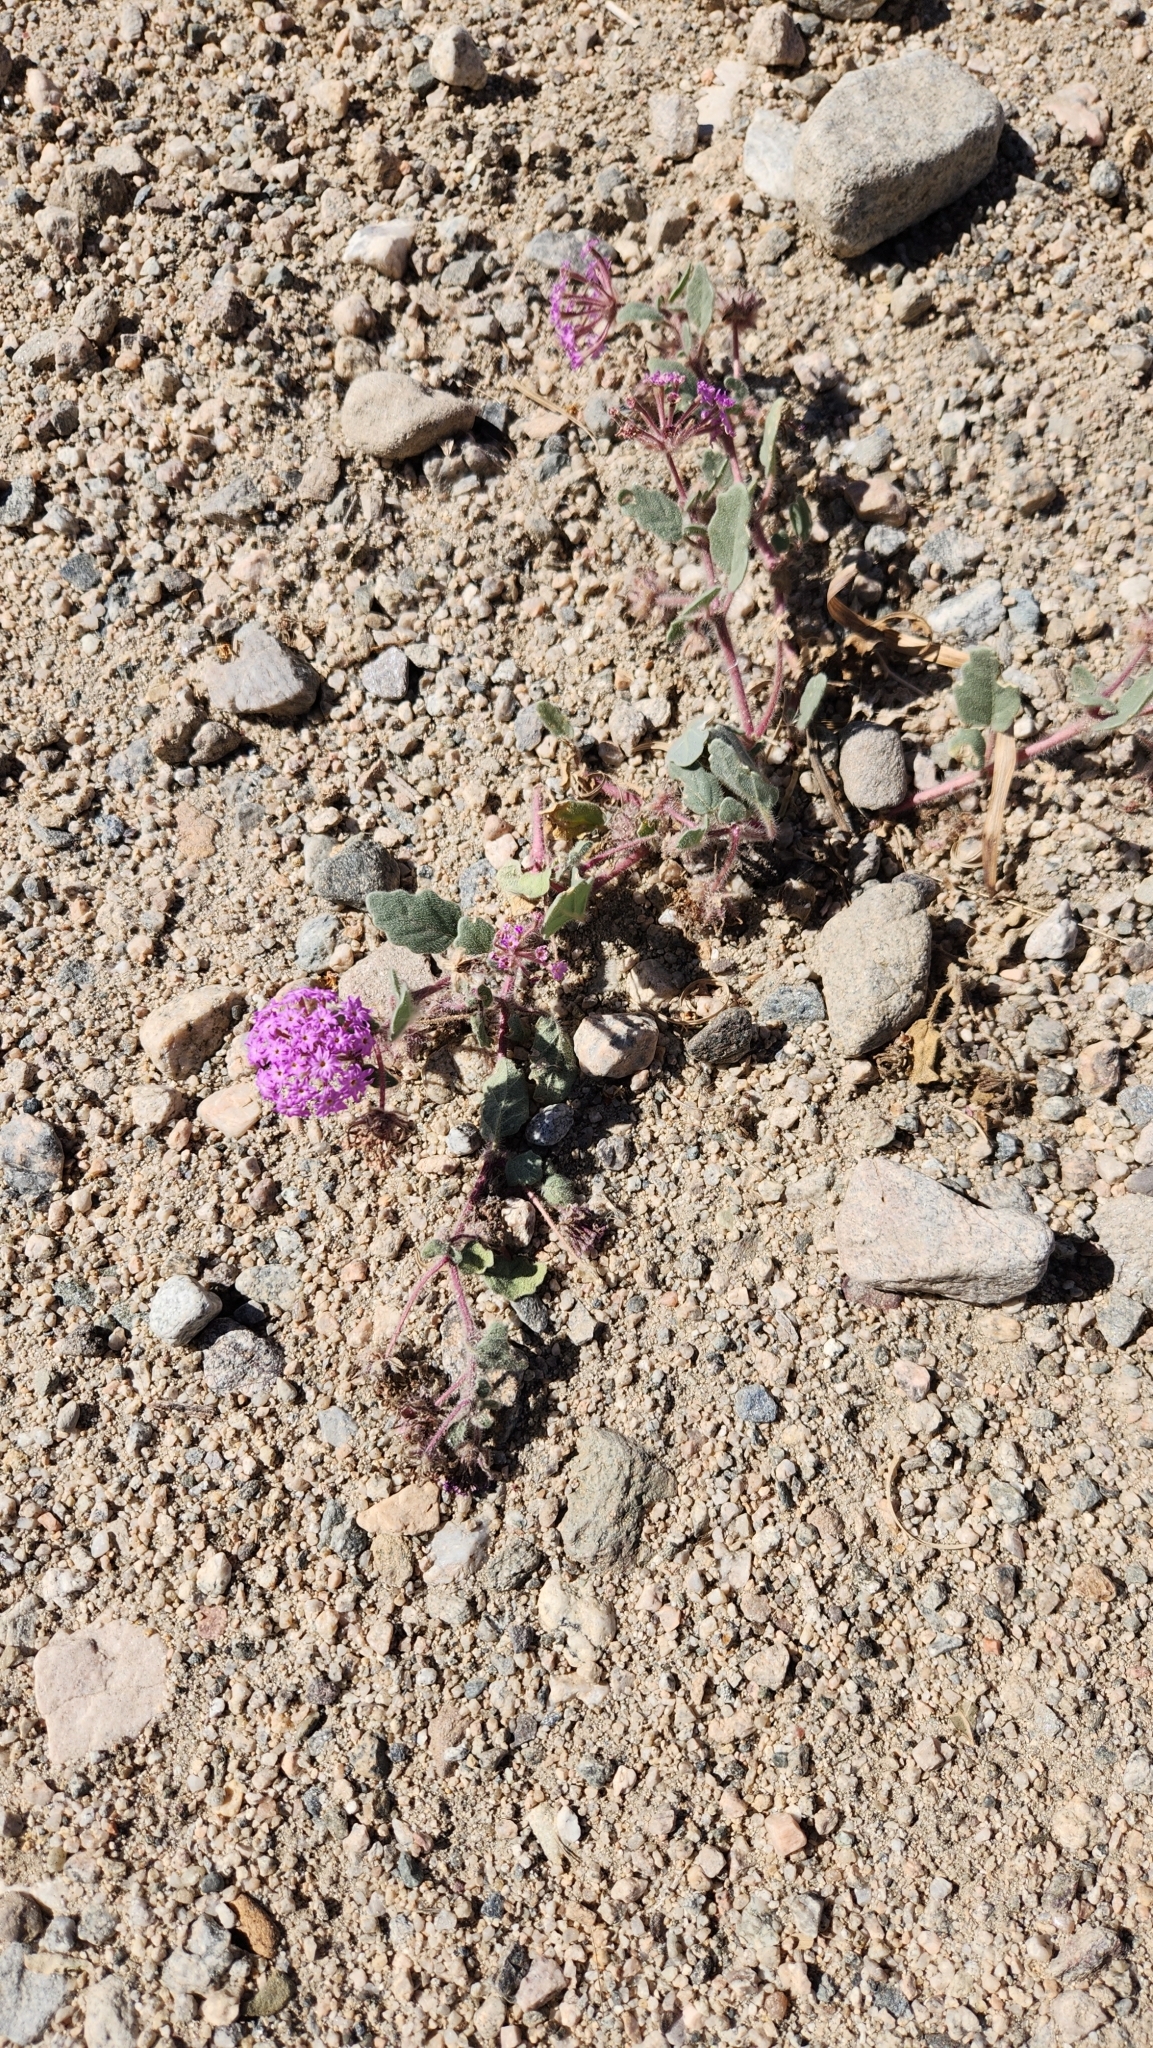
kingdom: Plantae
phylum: Tracheophyta
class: Magnoliopsida
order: Caryophyllales
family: Nyctaginaceae
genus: Abronia
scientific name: Abronia villosa
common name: Desert sand-verbena
